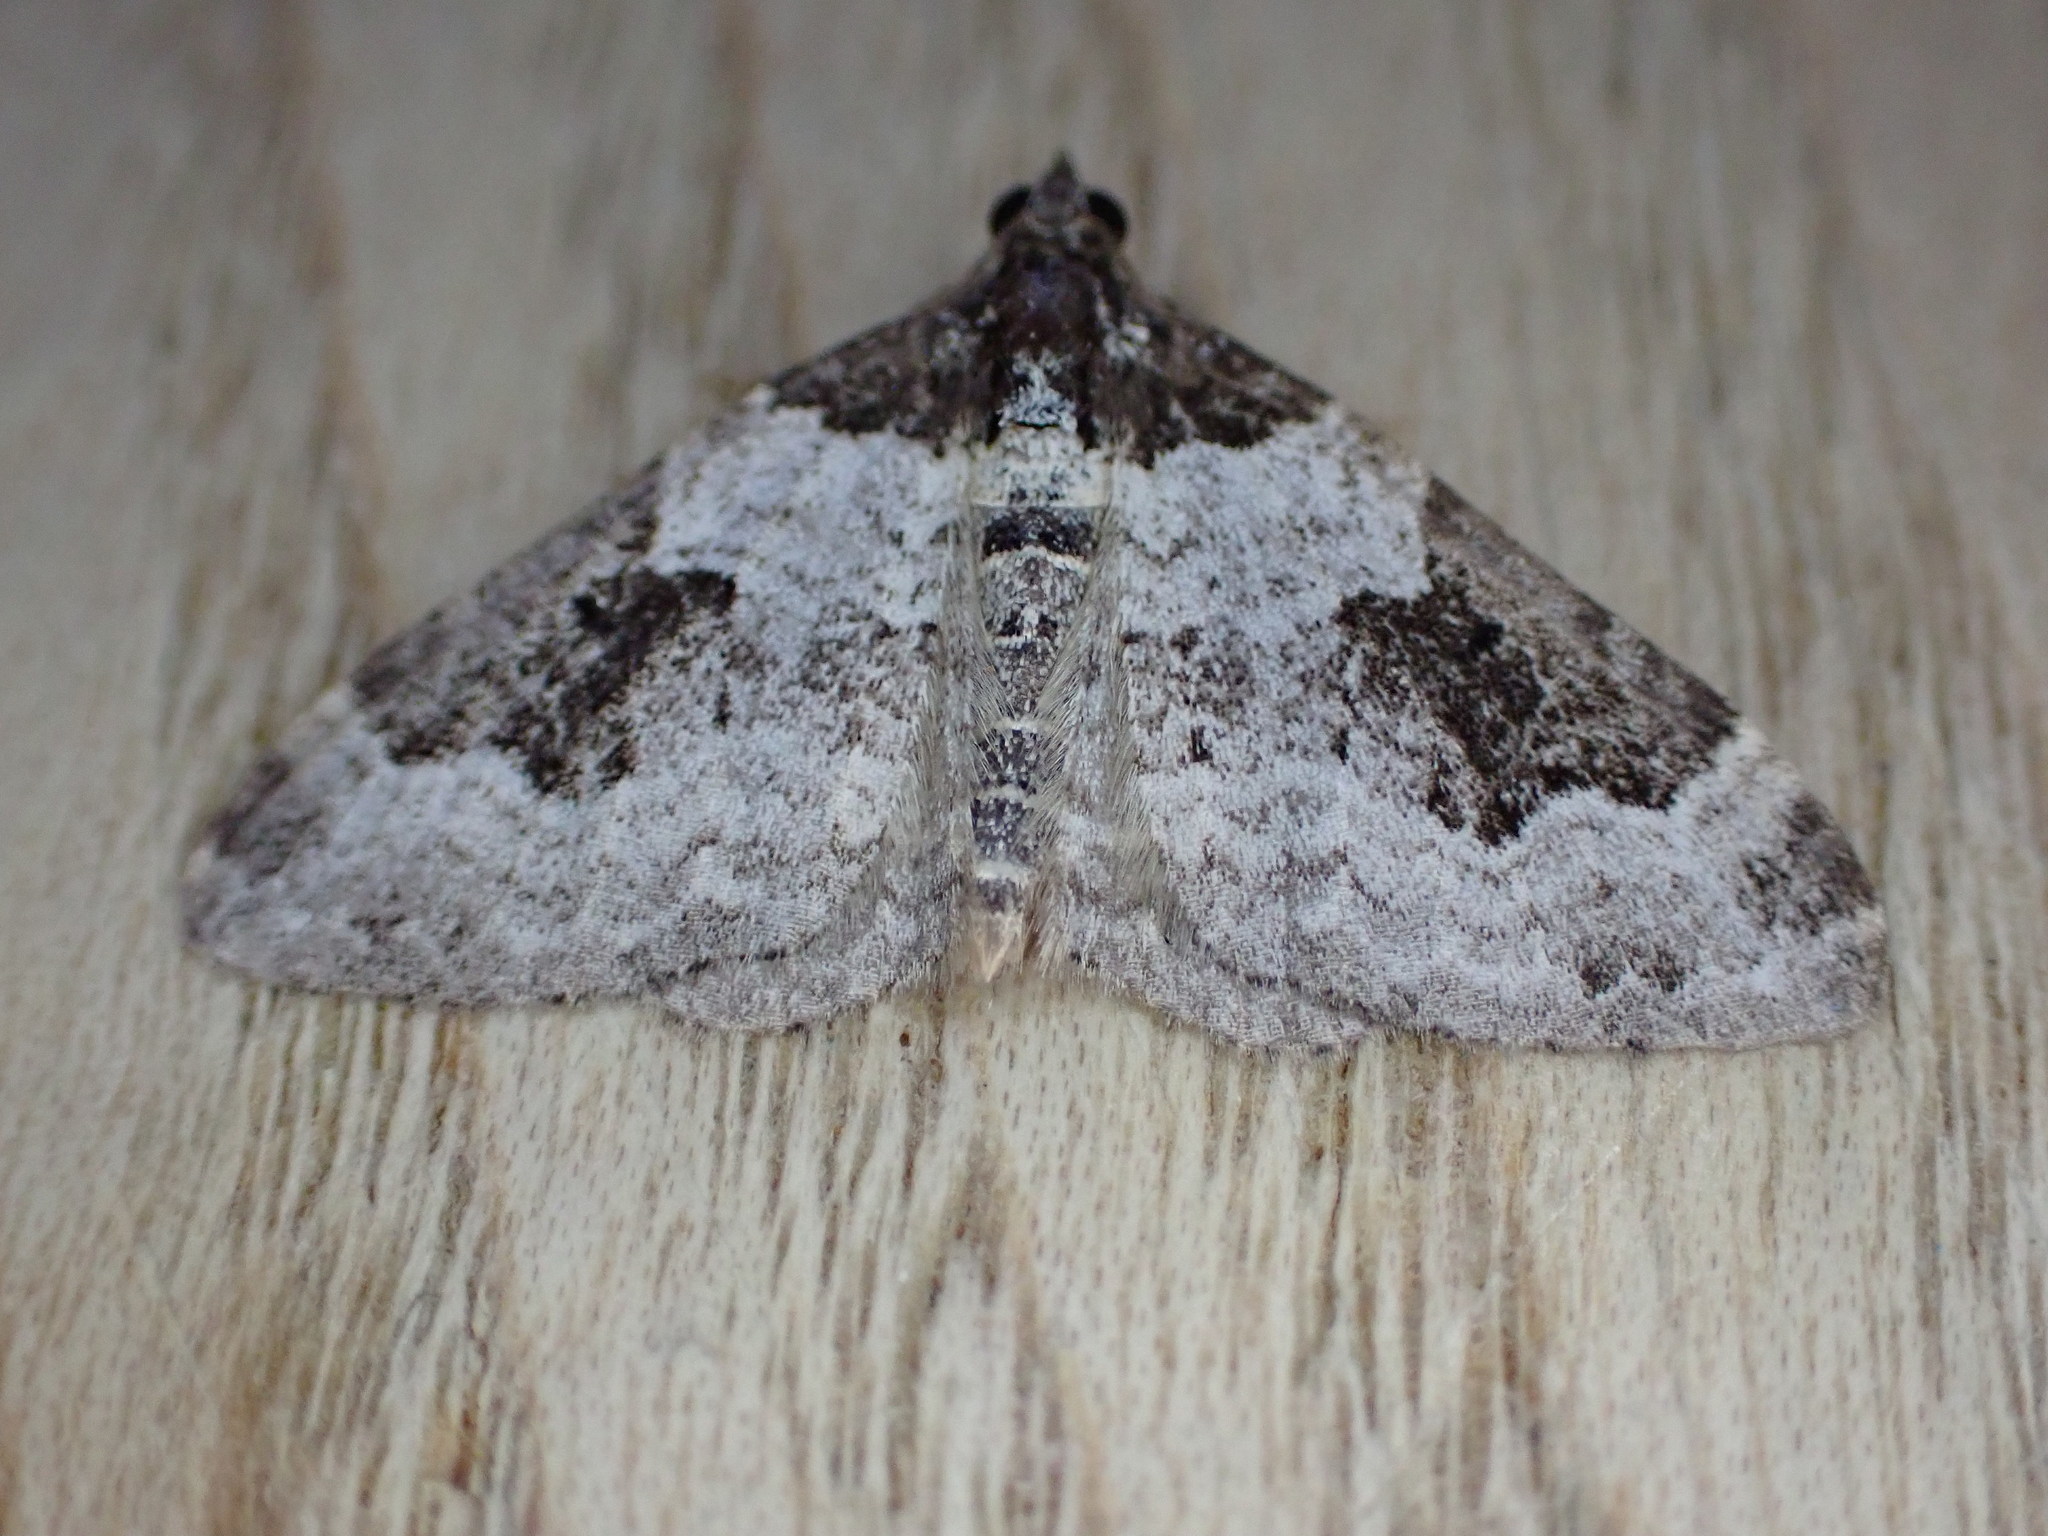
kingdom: Animalia
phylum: Arthropoda
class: Insecta
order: Lepidoptera
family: Geometridae
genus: Xanthorhoe
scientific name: Xanthorhoe fluctuata
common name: Garden carpet
